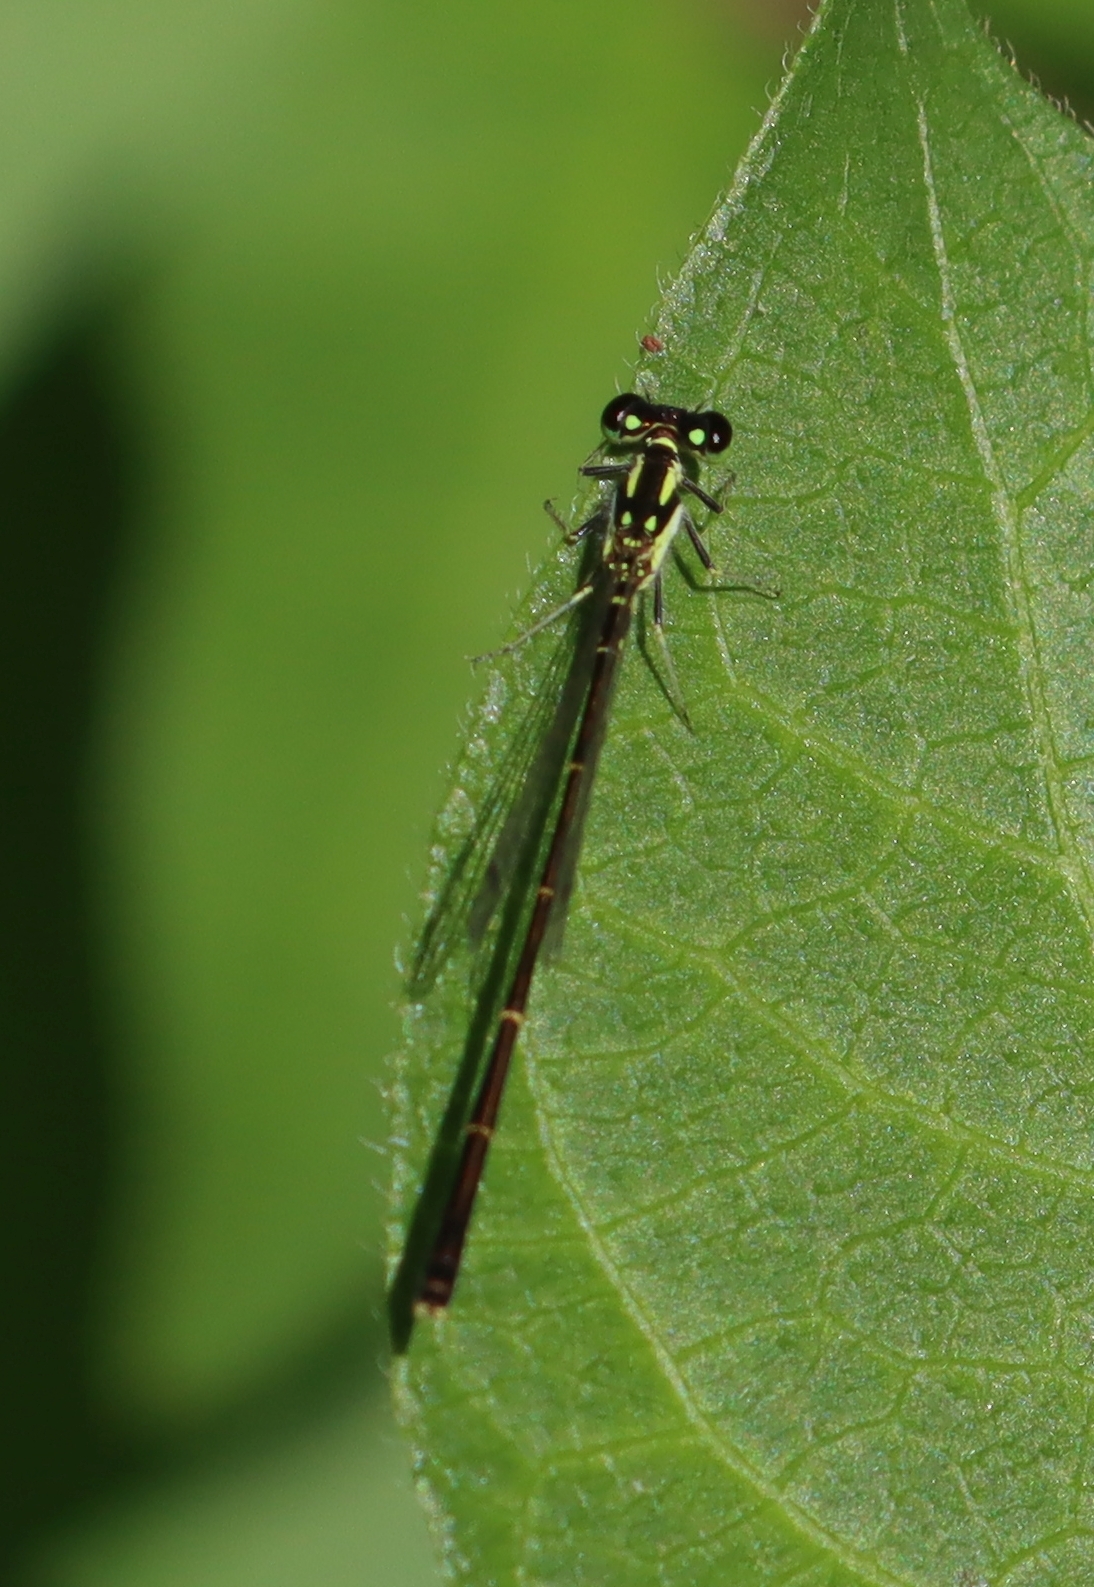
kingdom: Animalia
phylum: Arthropoda
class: Insecta
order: Odonata
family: Coenagrionidae
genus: Ischnura
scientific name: Ischnura posita
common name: Fragile forktail
